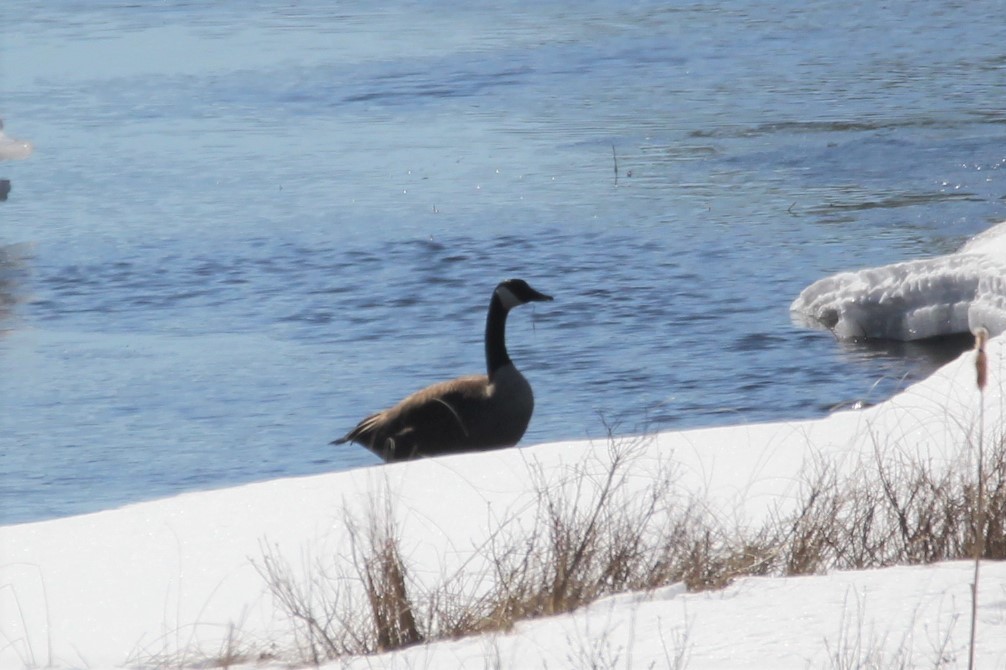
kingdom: Animalia
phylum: Chordata
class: Aves
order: Anseriformes
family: Anatidae
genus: Branta
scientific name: Branta canadensis
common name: Canada goose
